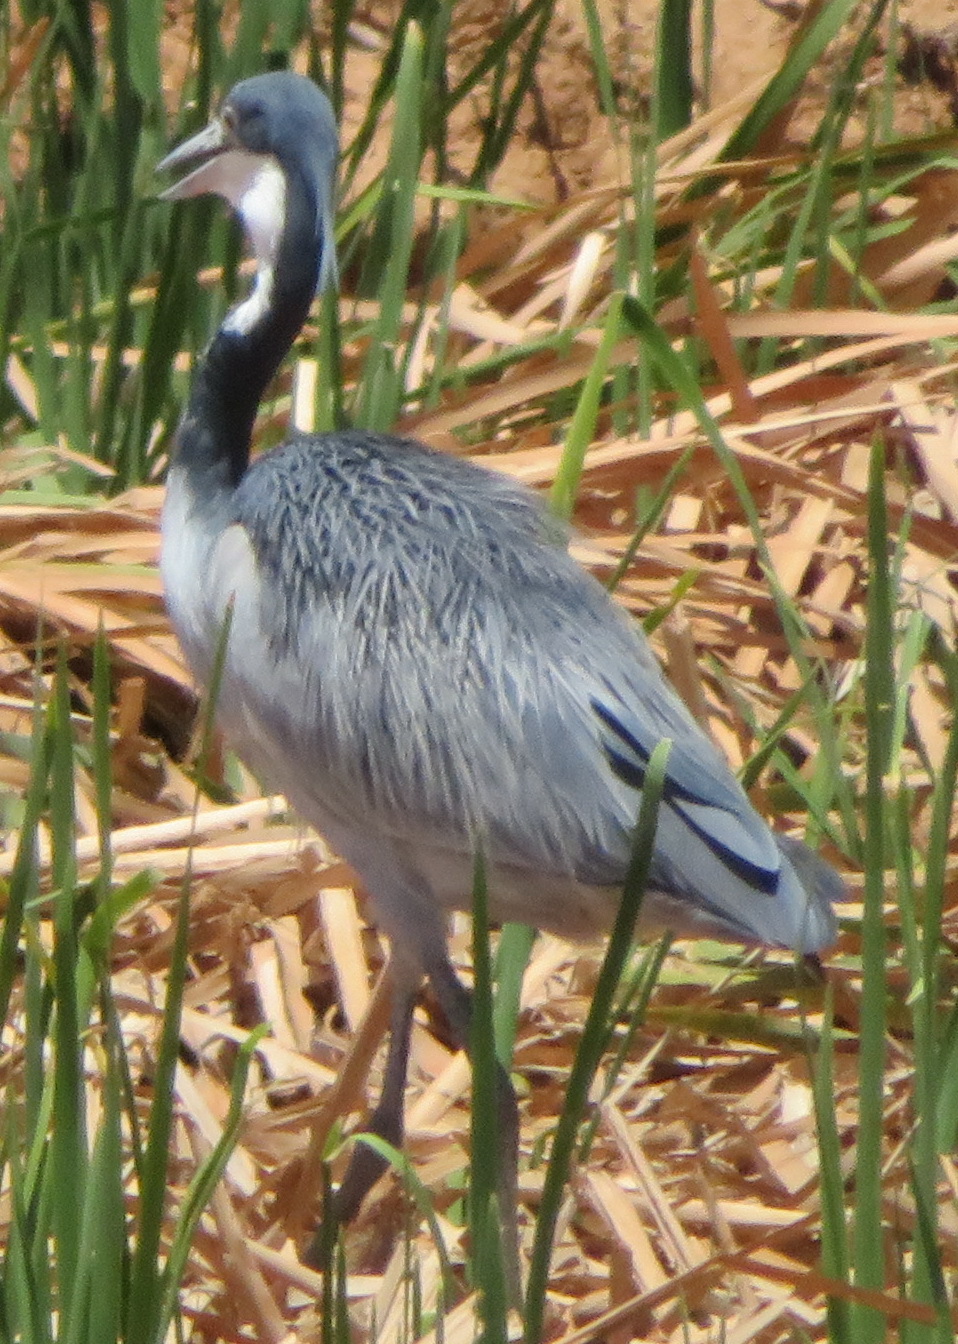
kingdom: Animalia
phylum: Chordata
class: Aves
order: Pelecaniformes
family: Ardeidae
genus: Ardea
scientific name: Ardea melanocephala
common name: Black-headed heron
